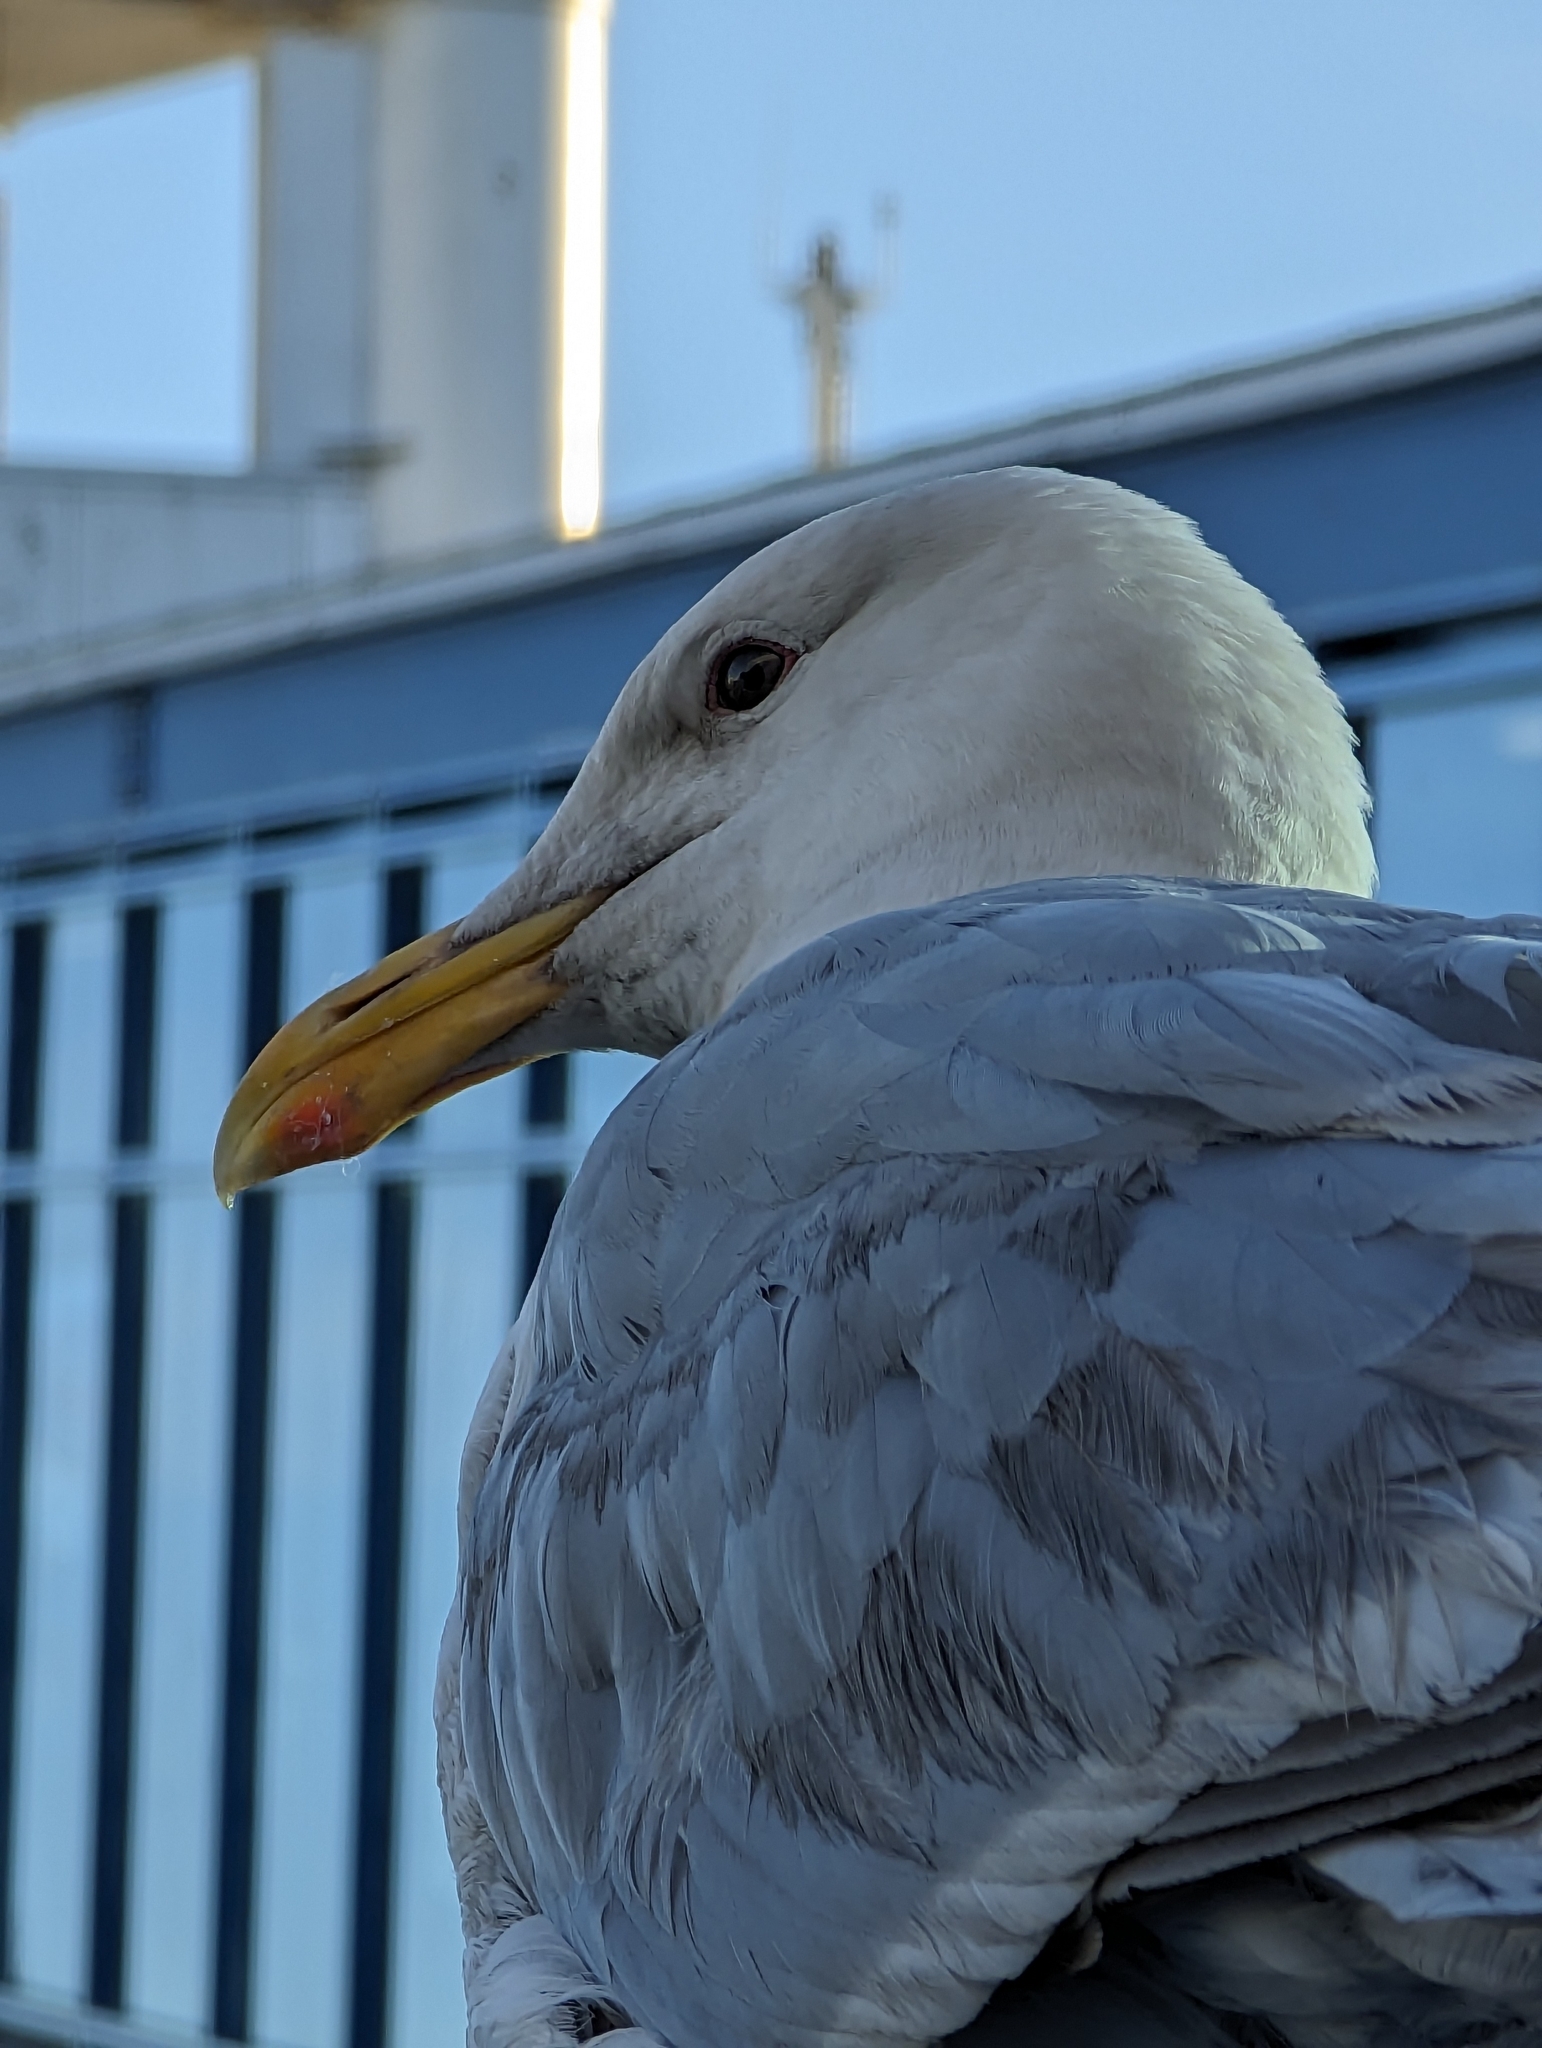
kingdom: Animalia
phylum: Chordata
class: Aves
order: Charadriiformes
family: Laridae
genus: Larus
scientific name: Larus
